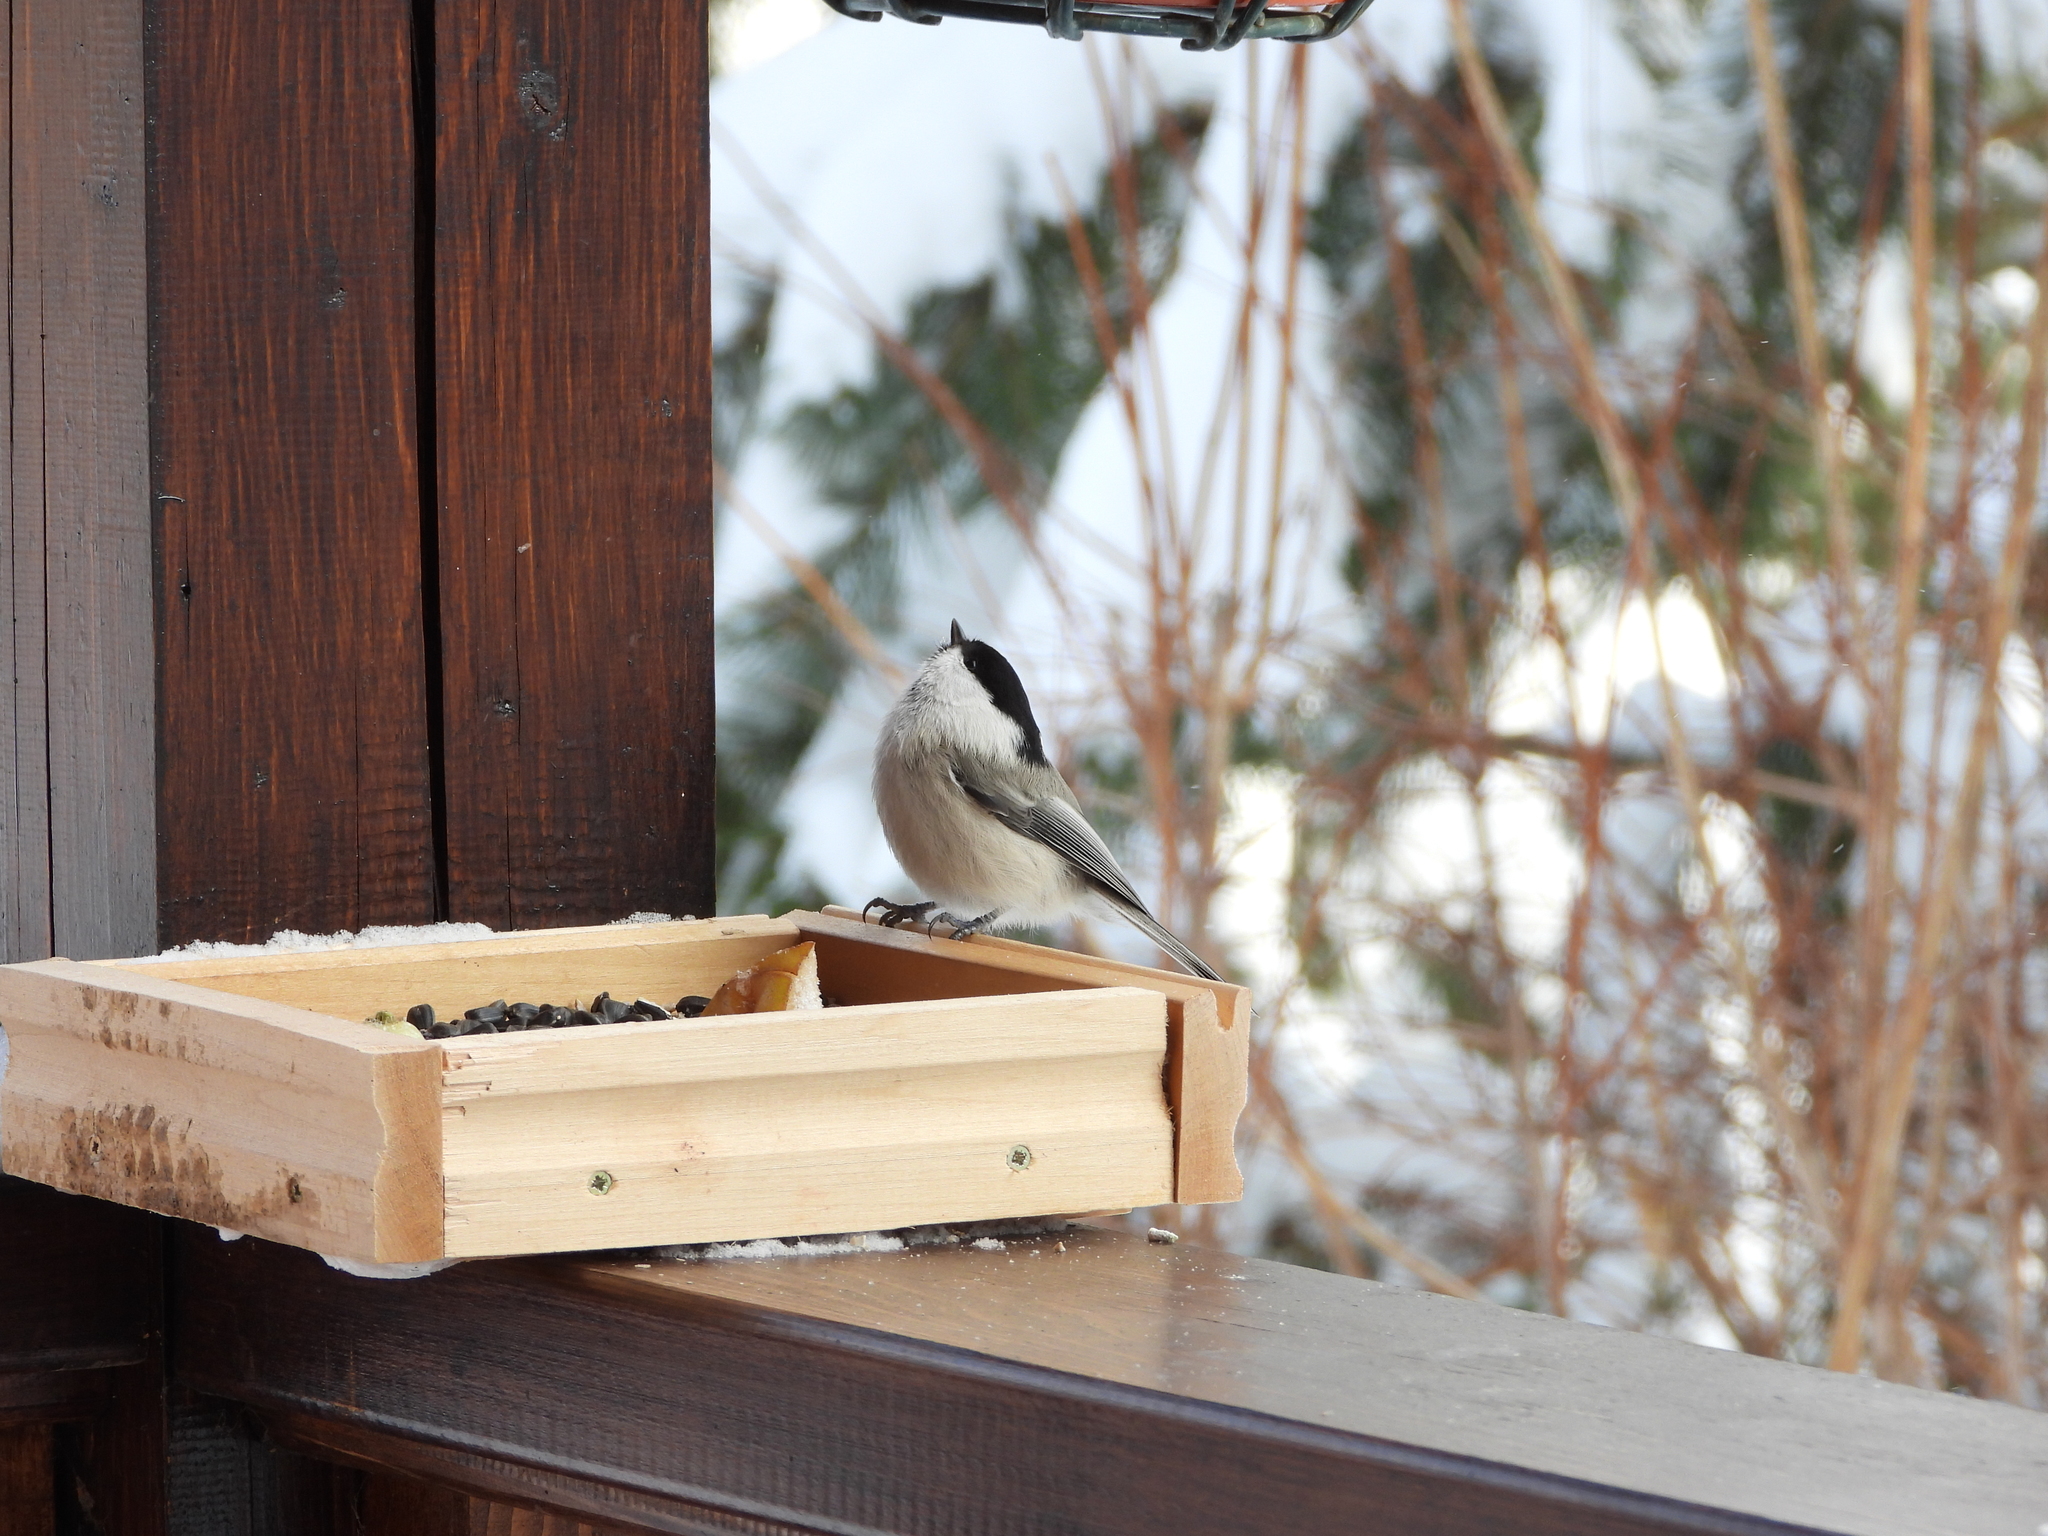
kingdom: Animalia
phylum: Chordata
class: Aves
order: Passeriformes
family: Paridae
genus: Poecile
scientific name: Poecile montanus
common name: Willow tit
